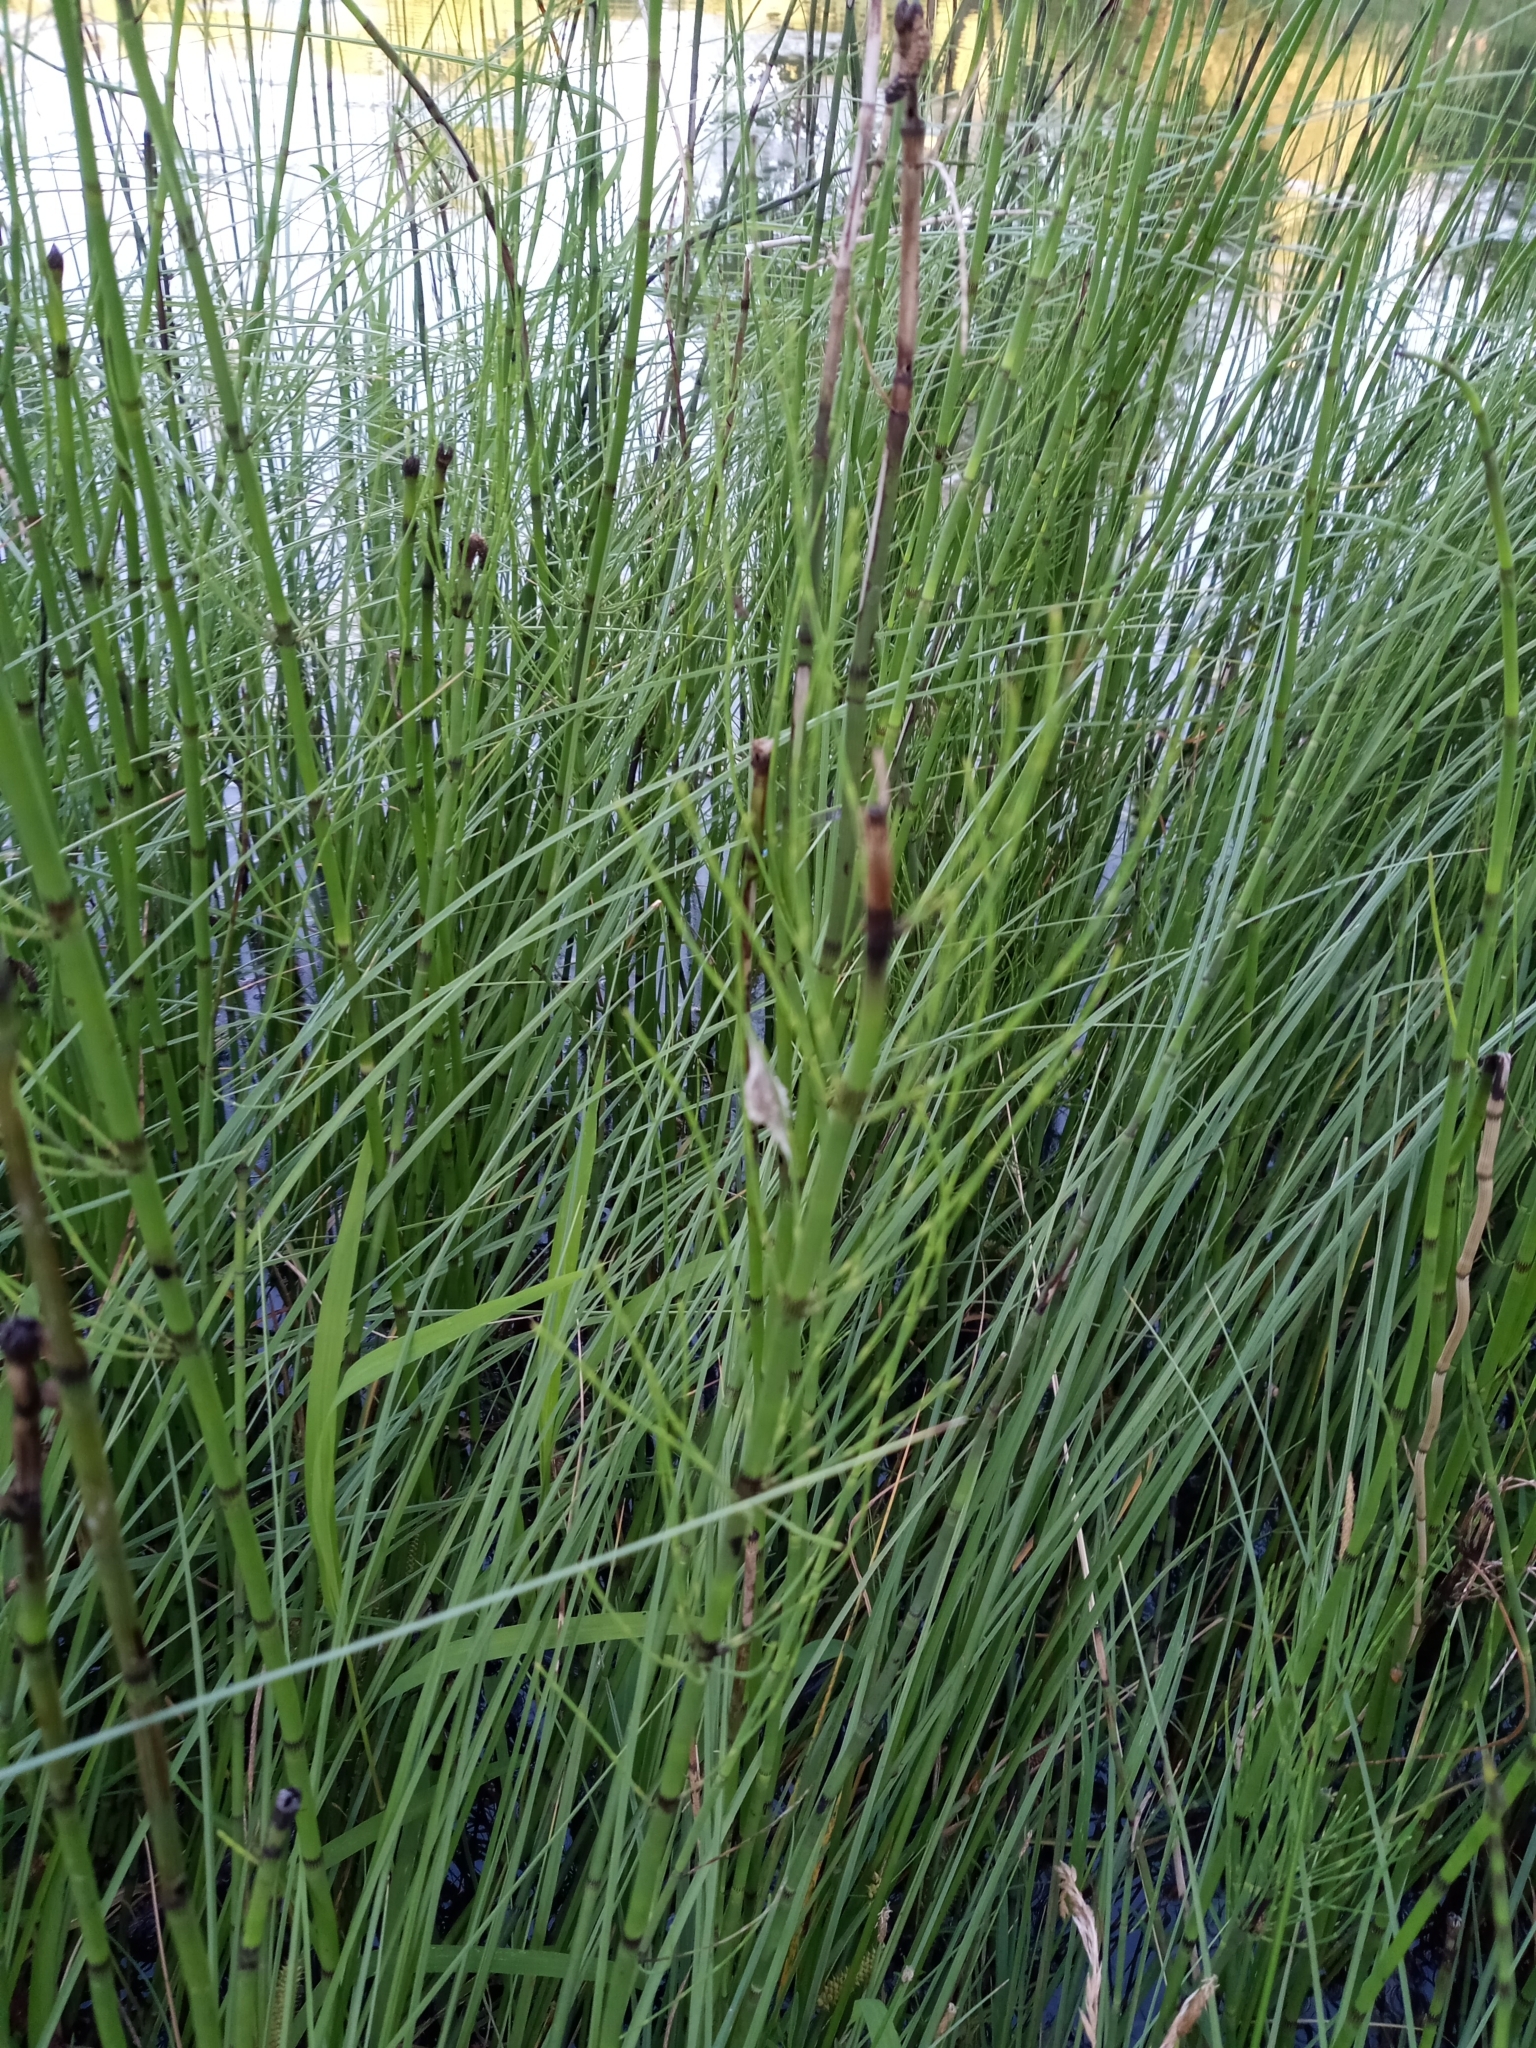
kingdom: Plantae
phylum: Tracheophyta
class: Polypodiopsida
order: Equisetales
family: Equisetaceae
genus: Equisetum
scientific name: Equisetum fluviatile
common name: Water horsetail
